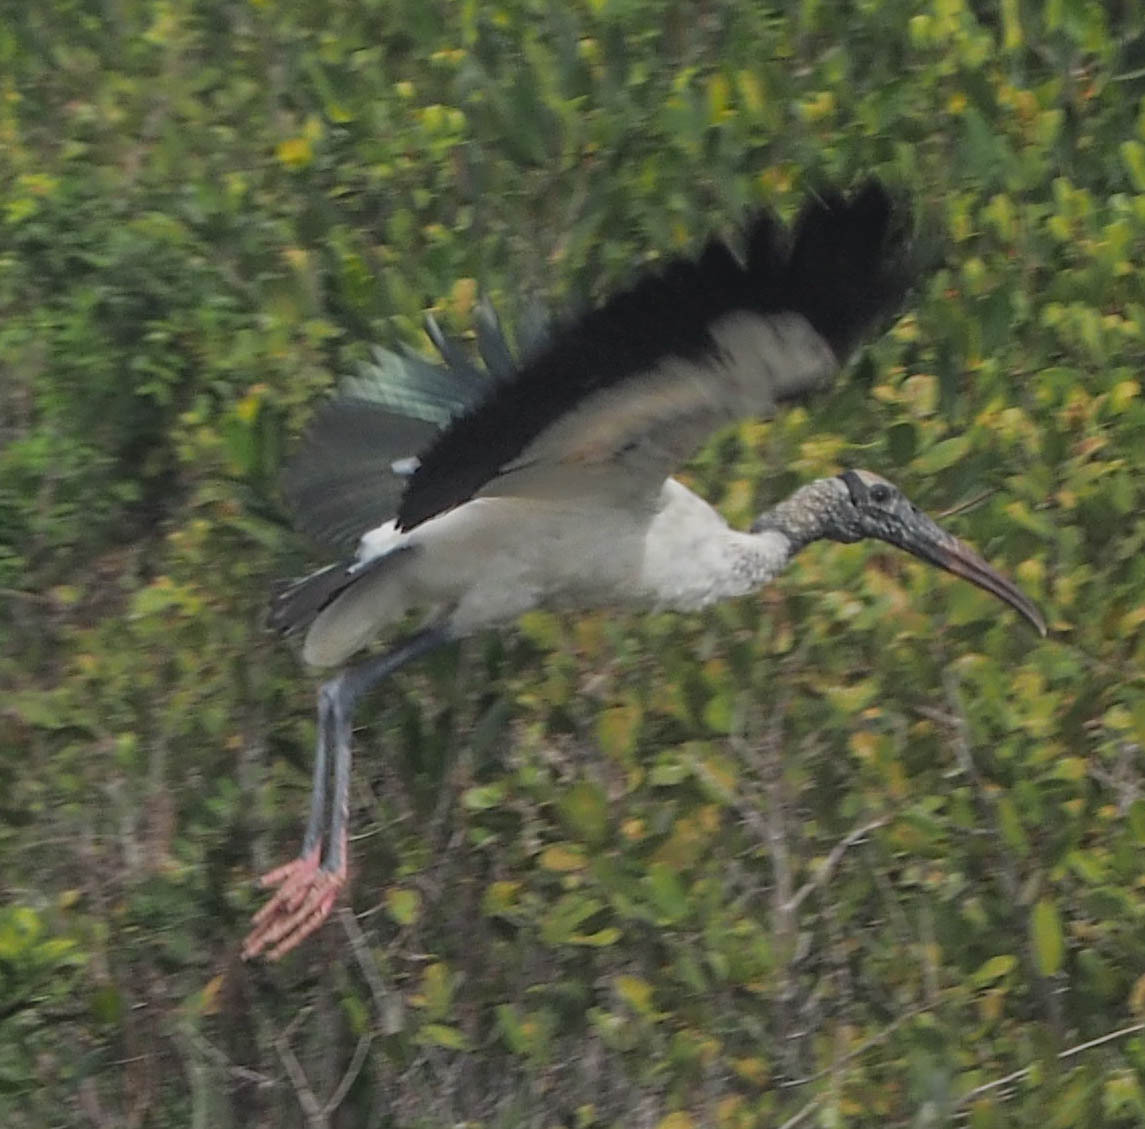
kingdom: Animalia
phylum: Chordata
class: Aves
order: Ciconiiformes
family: Ciconiidae
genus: Mycteria
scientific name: Mycteria americana
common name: Wood stork
